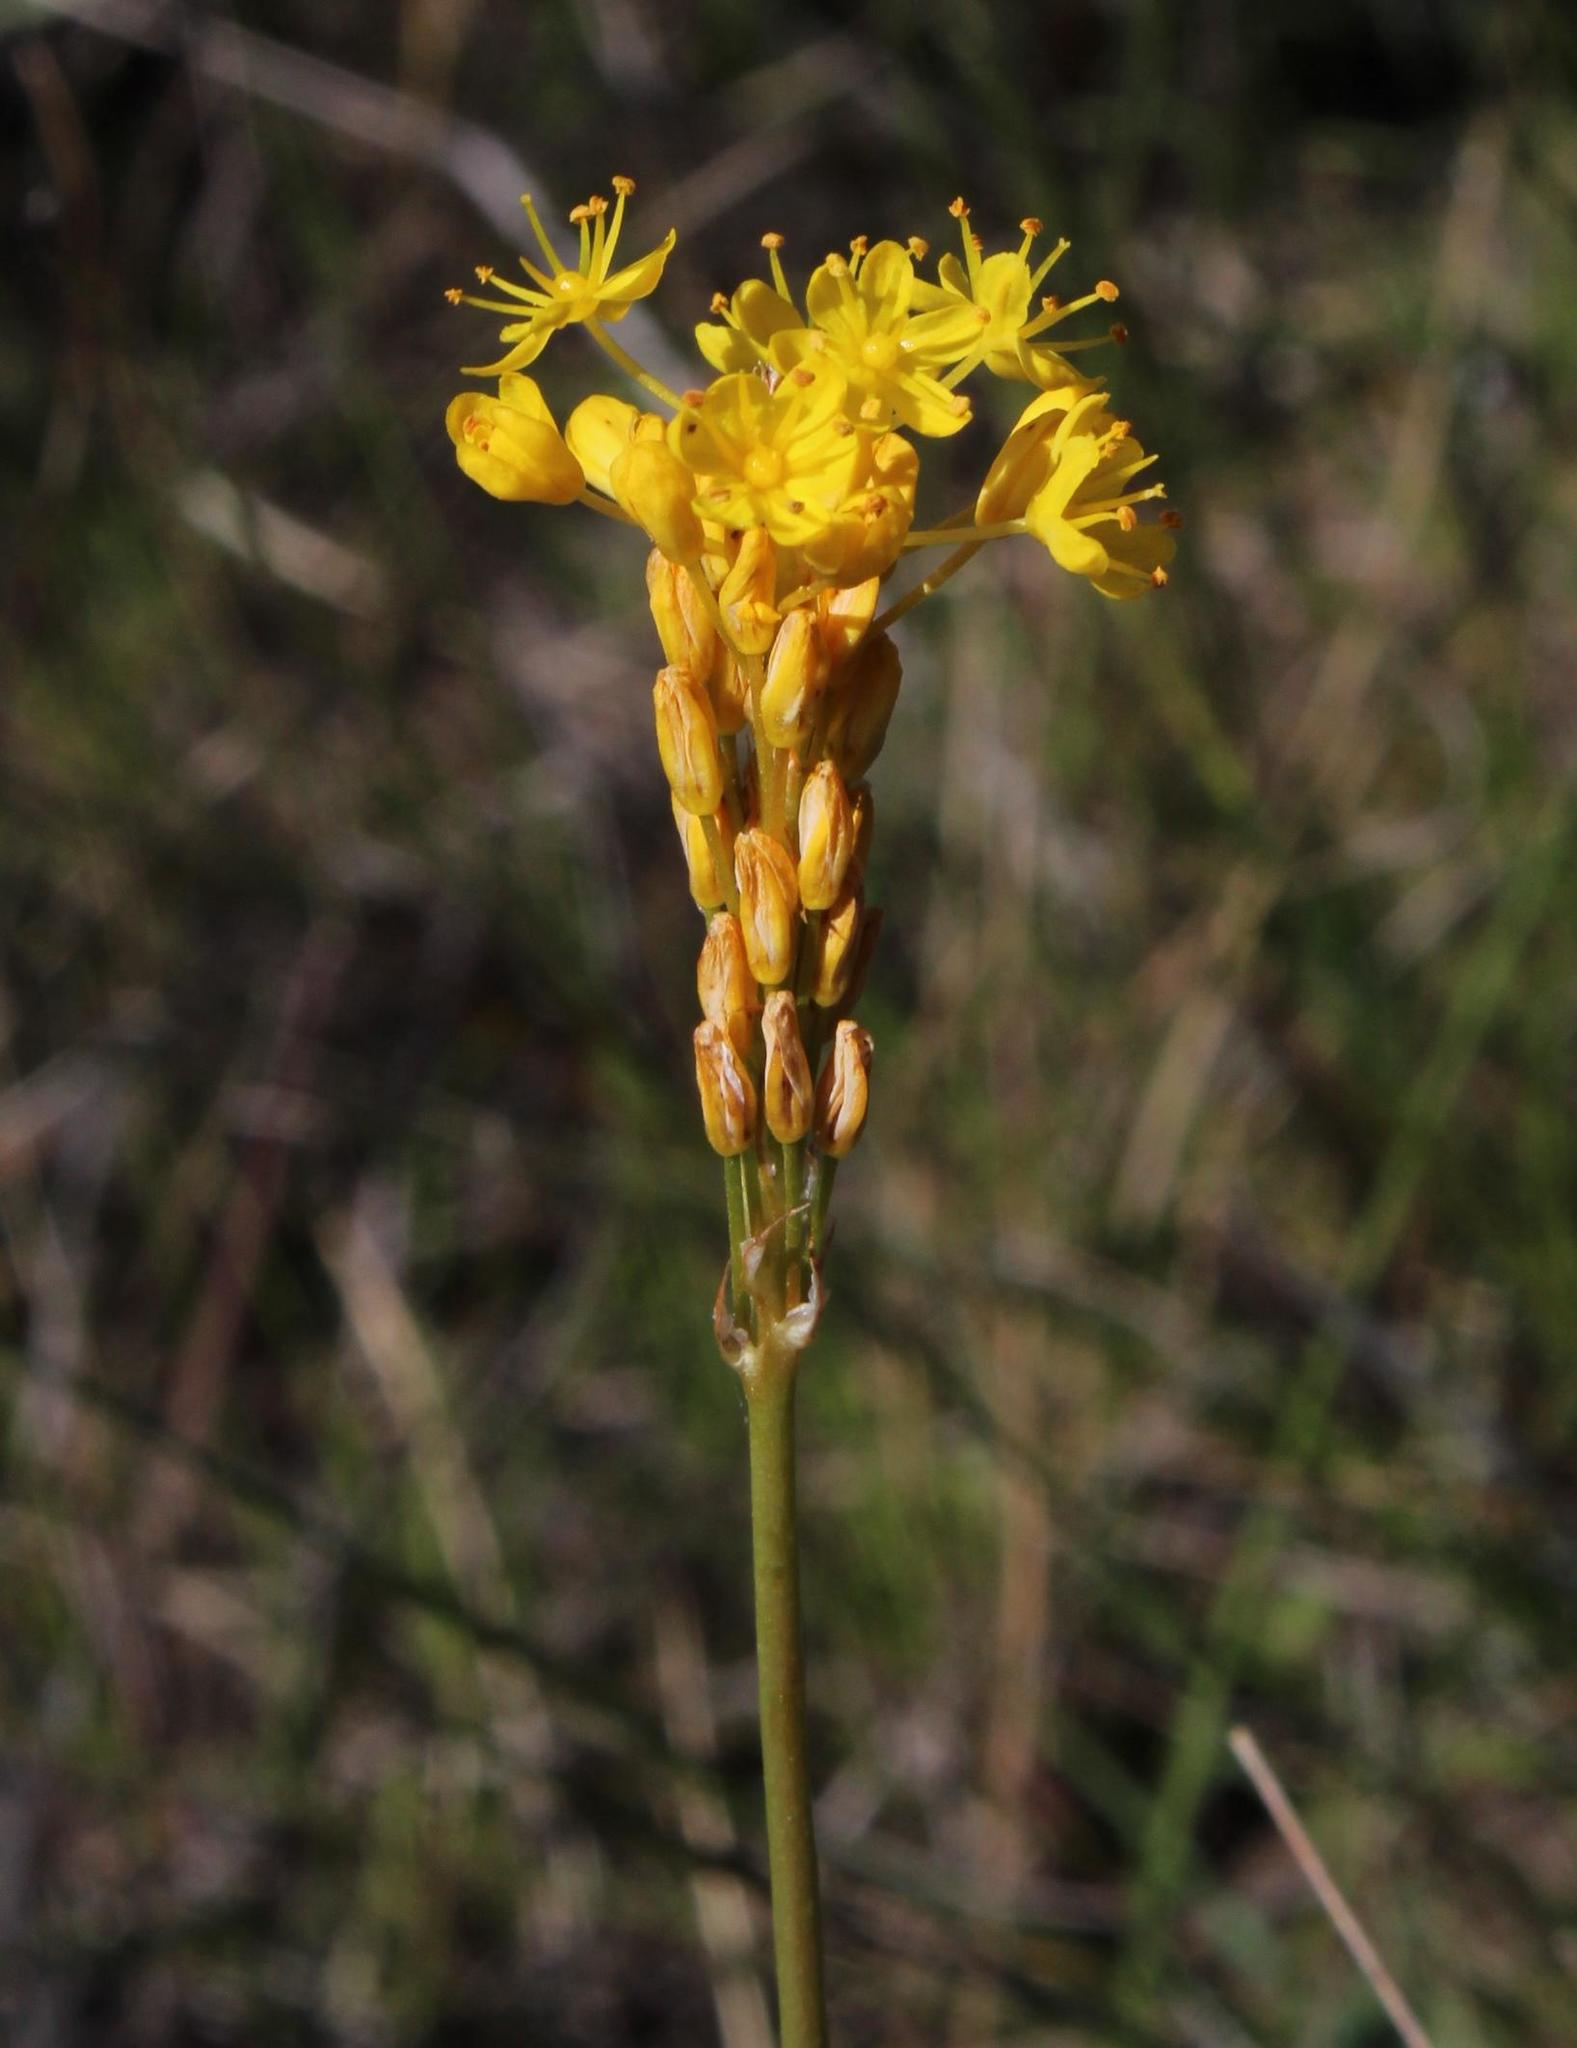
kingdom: Plantae
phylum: Tracheophyta
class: Liliopsida
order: Asparagales
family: Asphodelaceae
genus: Bulbinella
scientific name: Bulbinella triquetra
